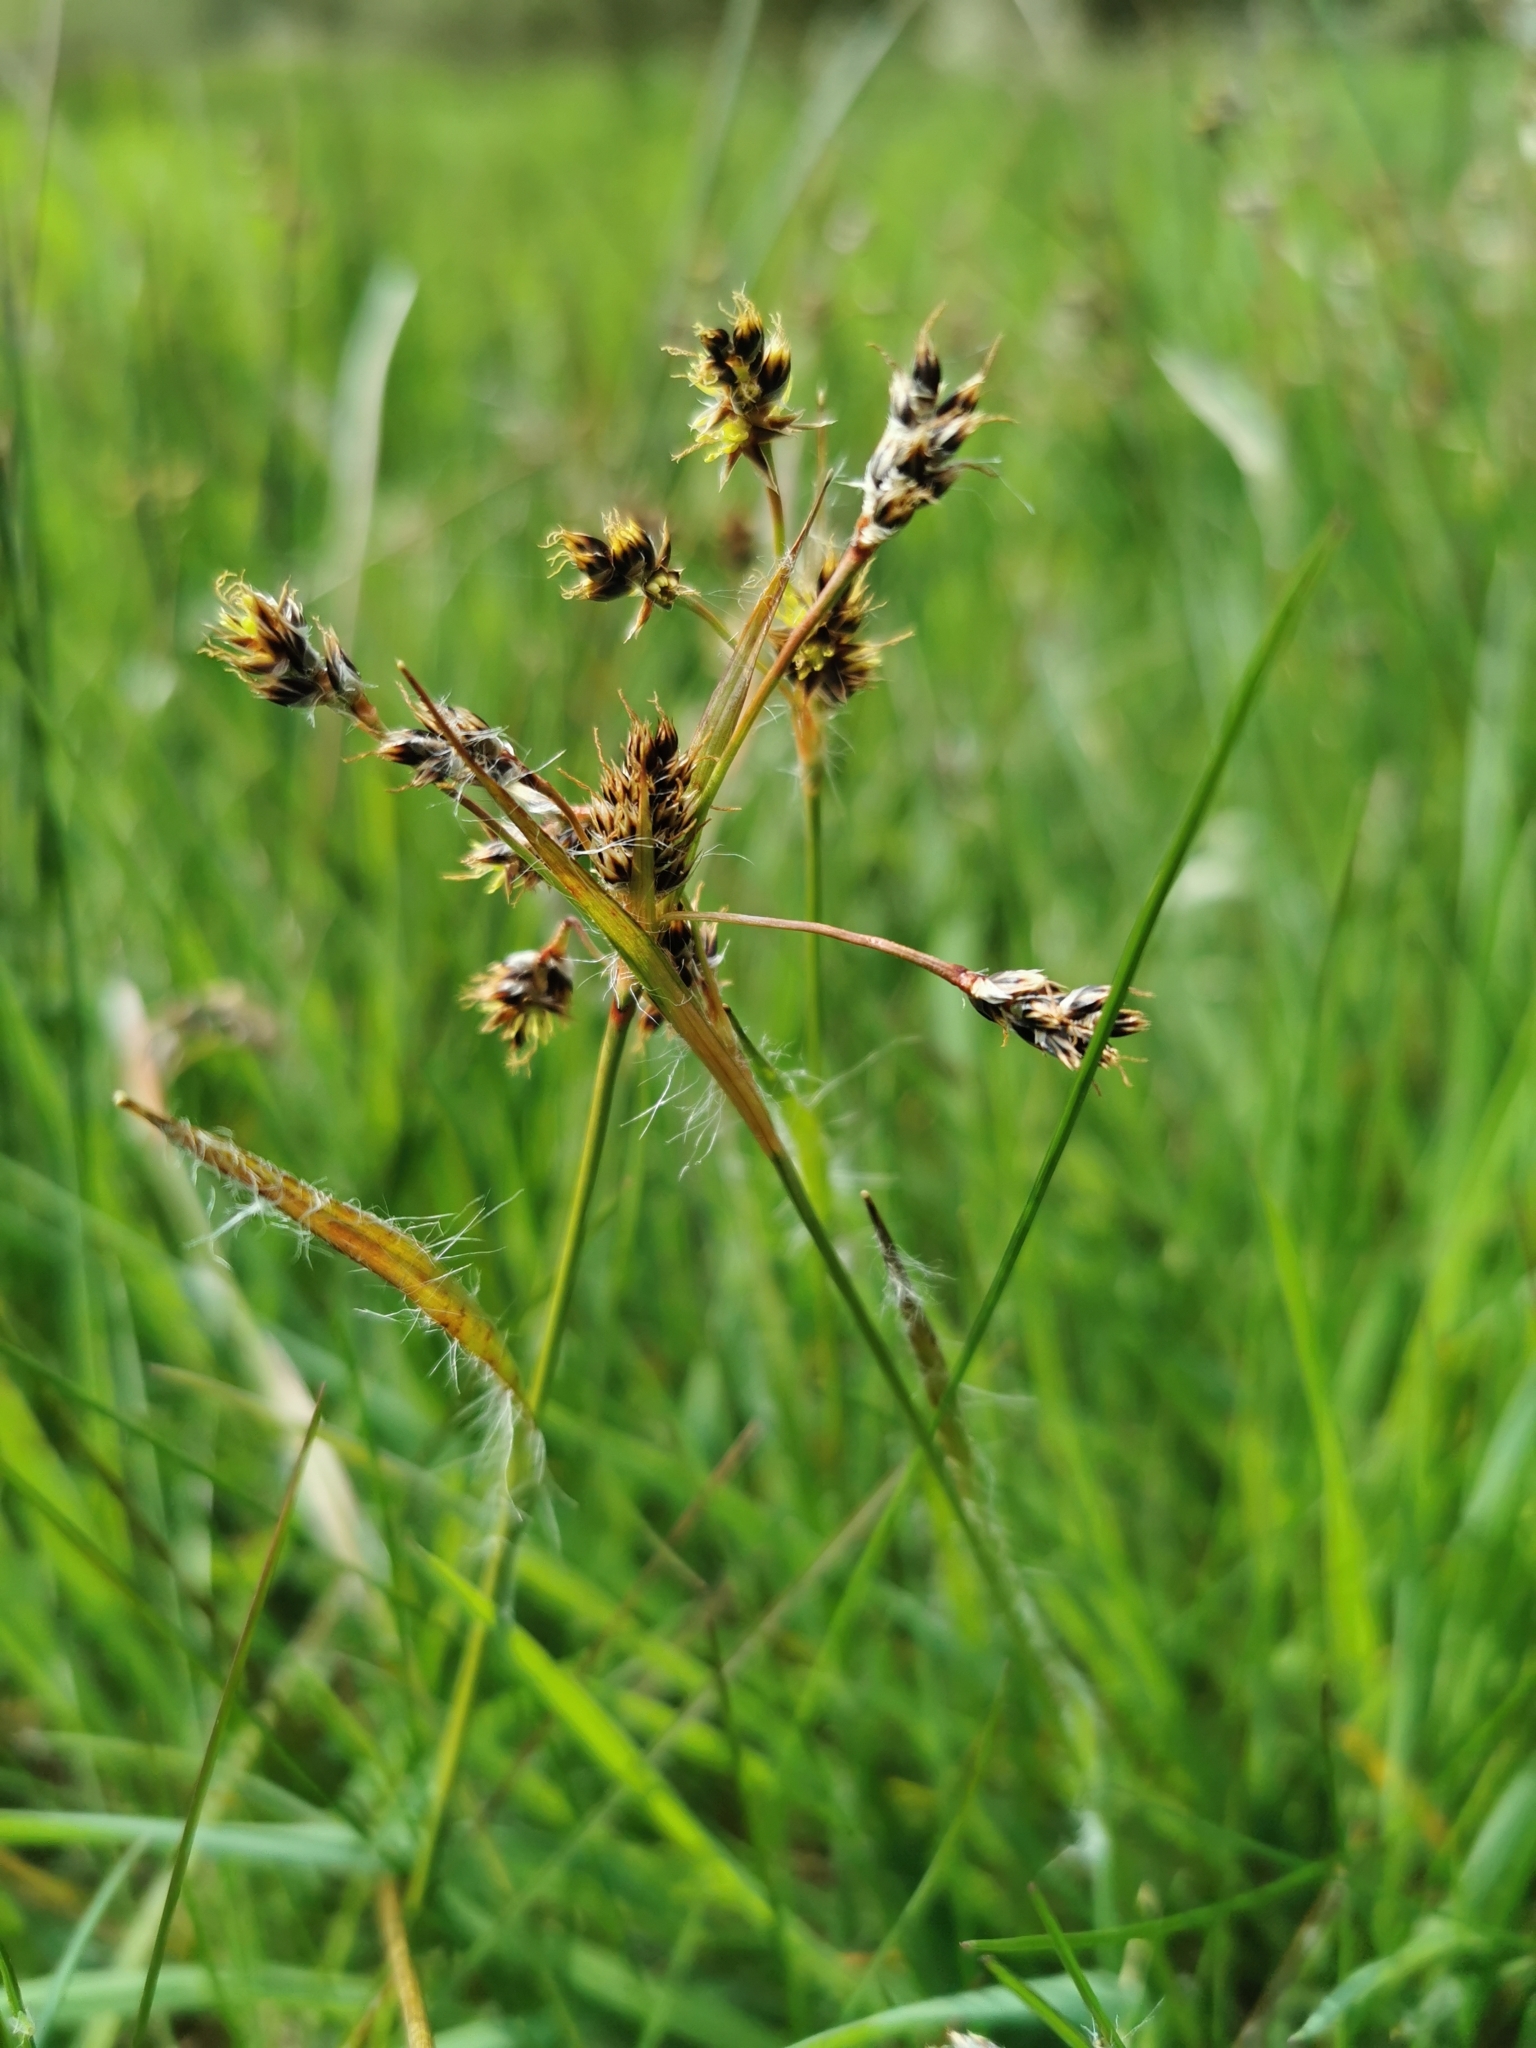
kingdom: Plantae
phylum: Tracheophyta
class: Liliopsida
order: Poales
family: Juncaceae
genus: Luzula
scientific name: Luzula campestris
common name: Field wood-rush
